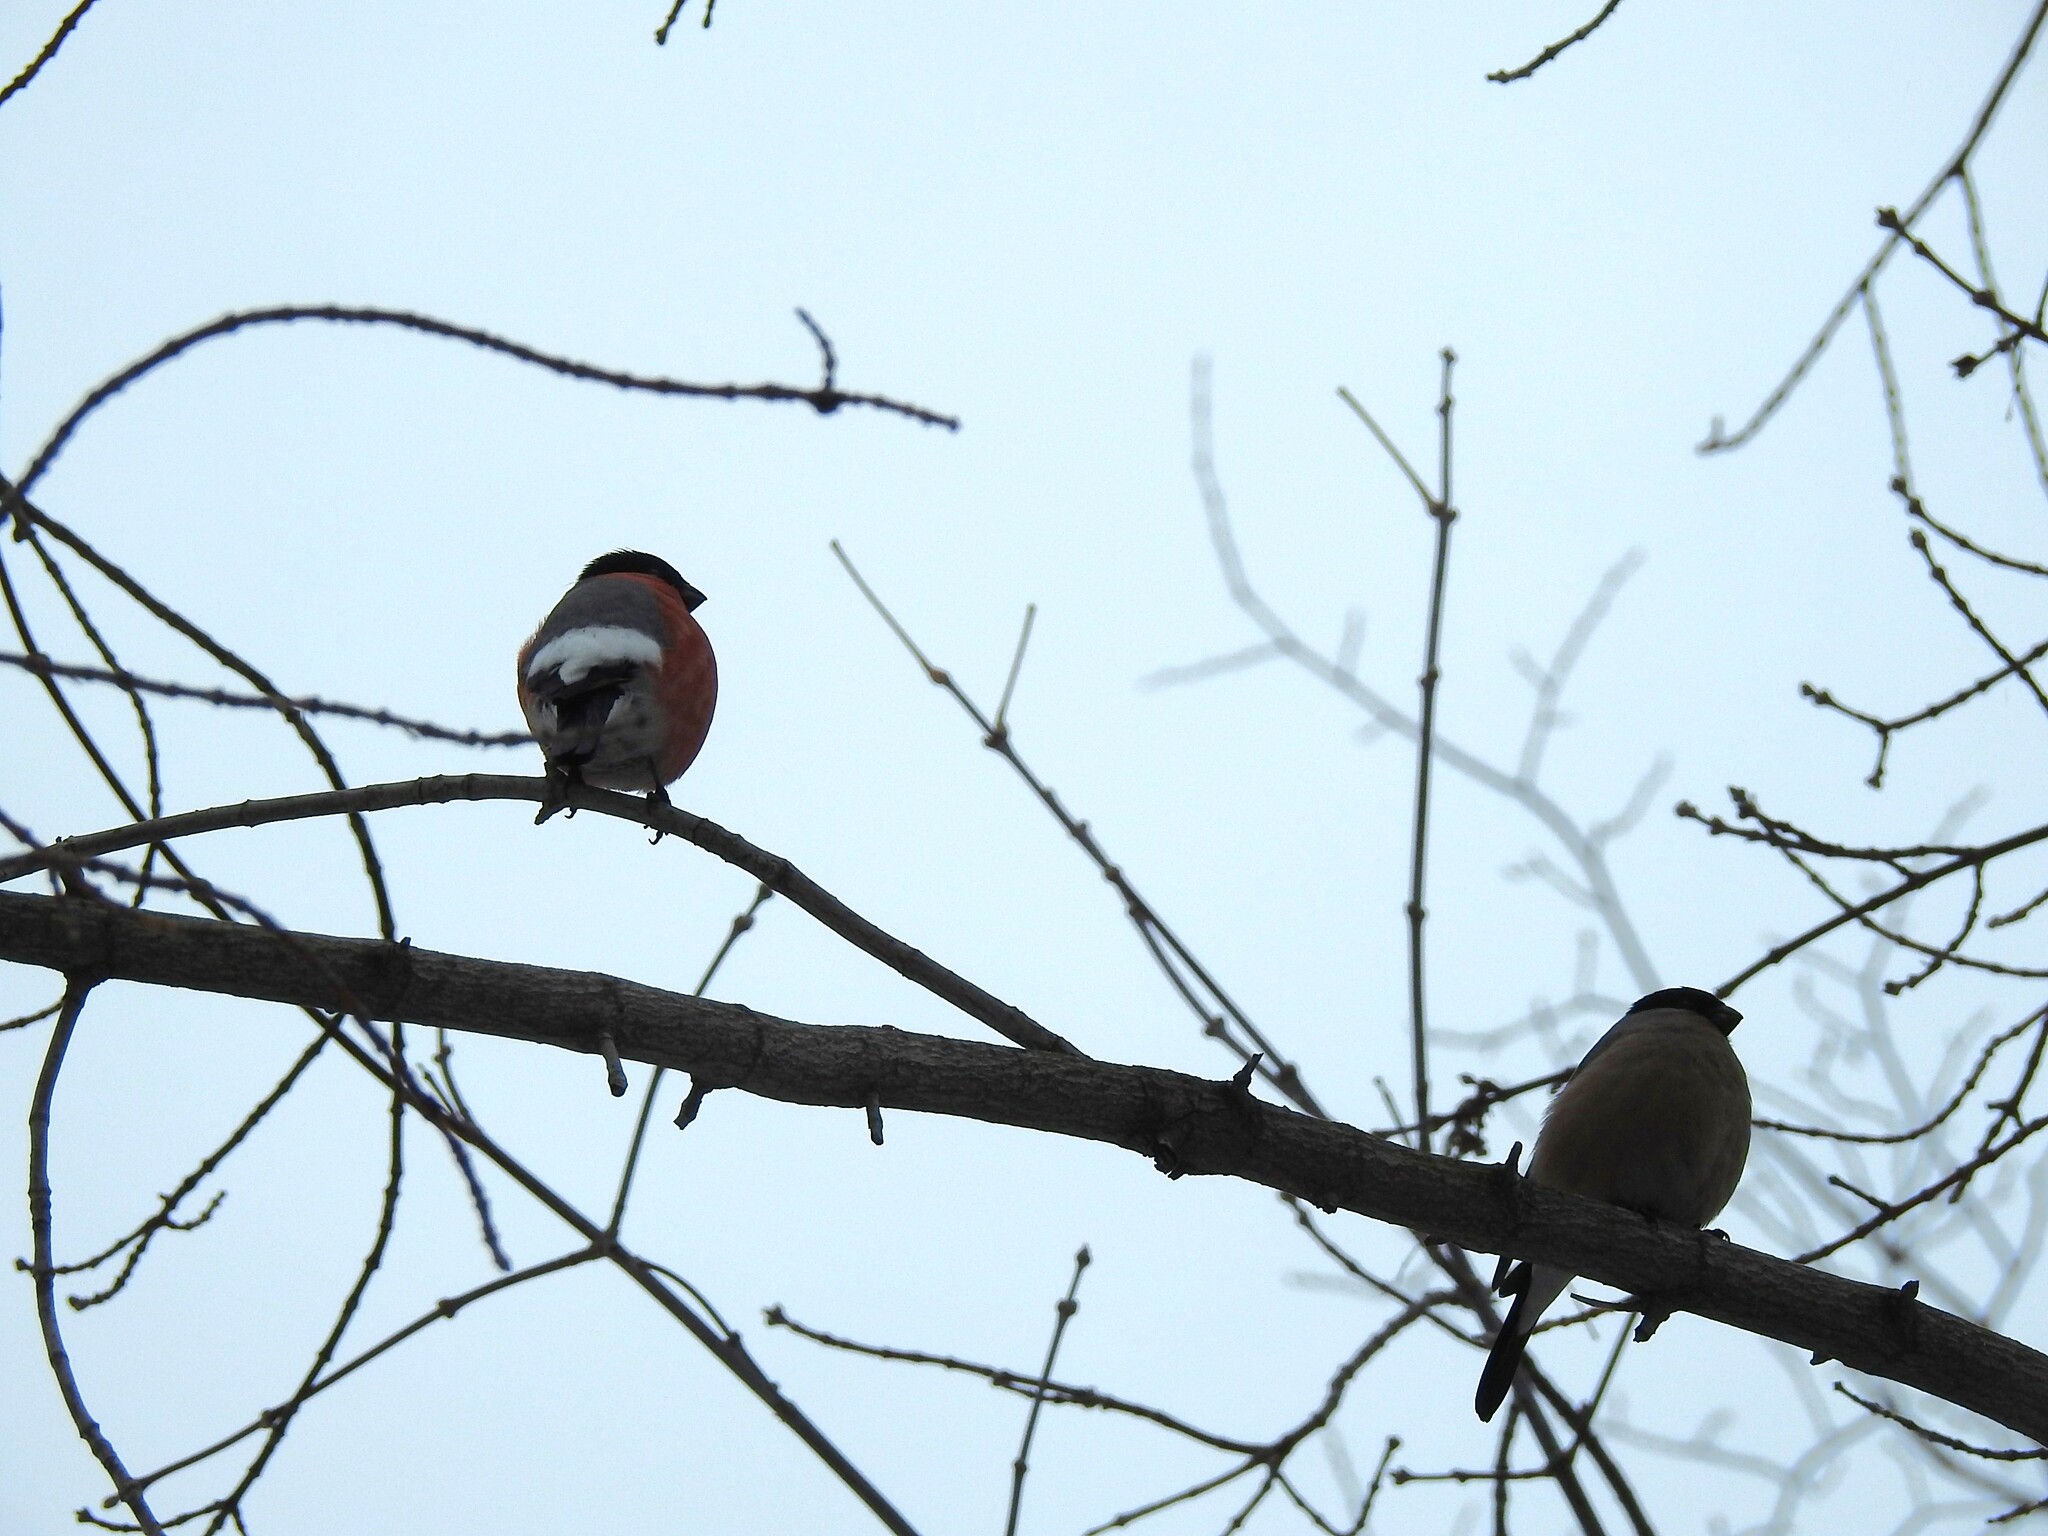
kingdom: Animalia
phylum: Chordata
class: Aves
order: Passeriformes
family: Fringillidae
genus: Pyrrhula
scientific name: Pyrrhula pyrrhula
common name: Eurasian bullfinch
